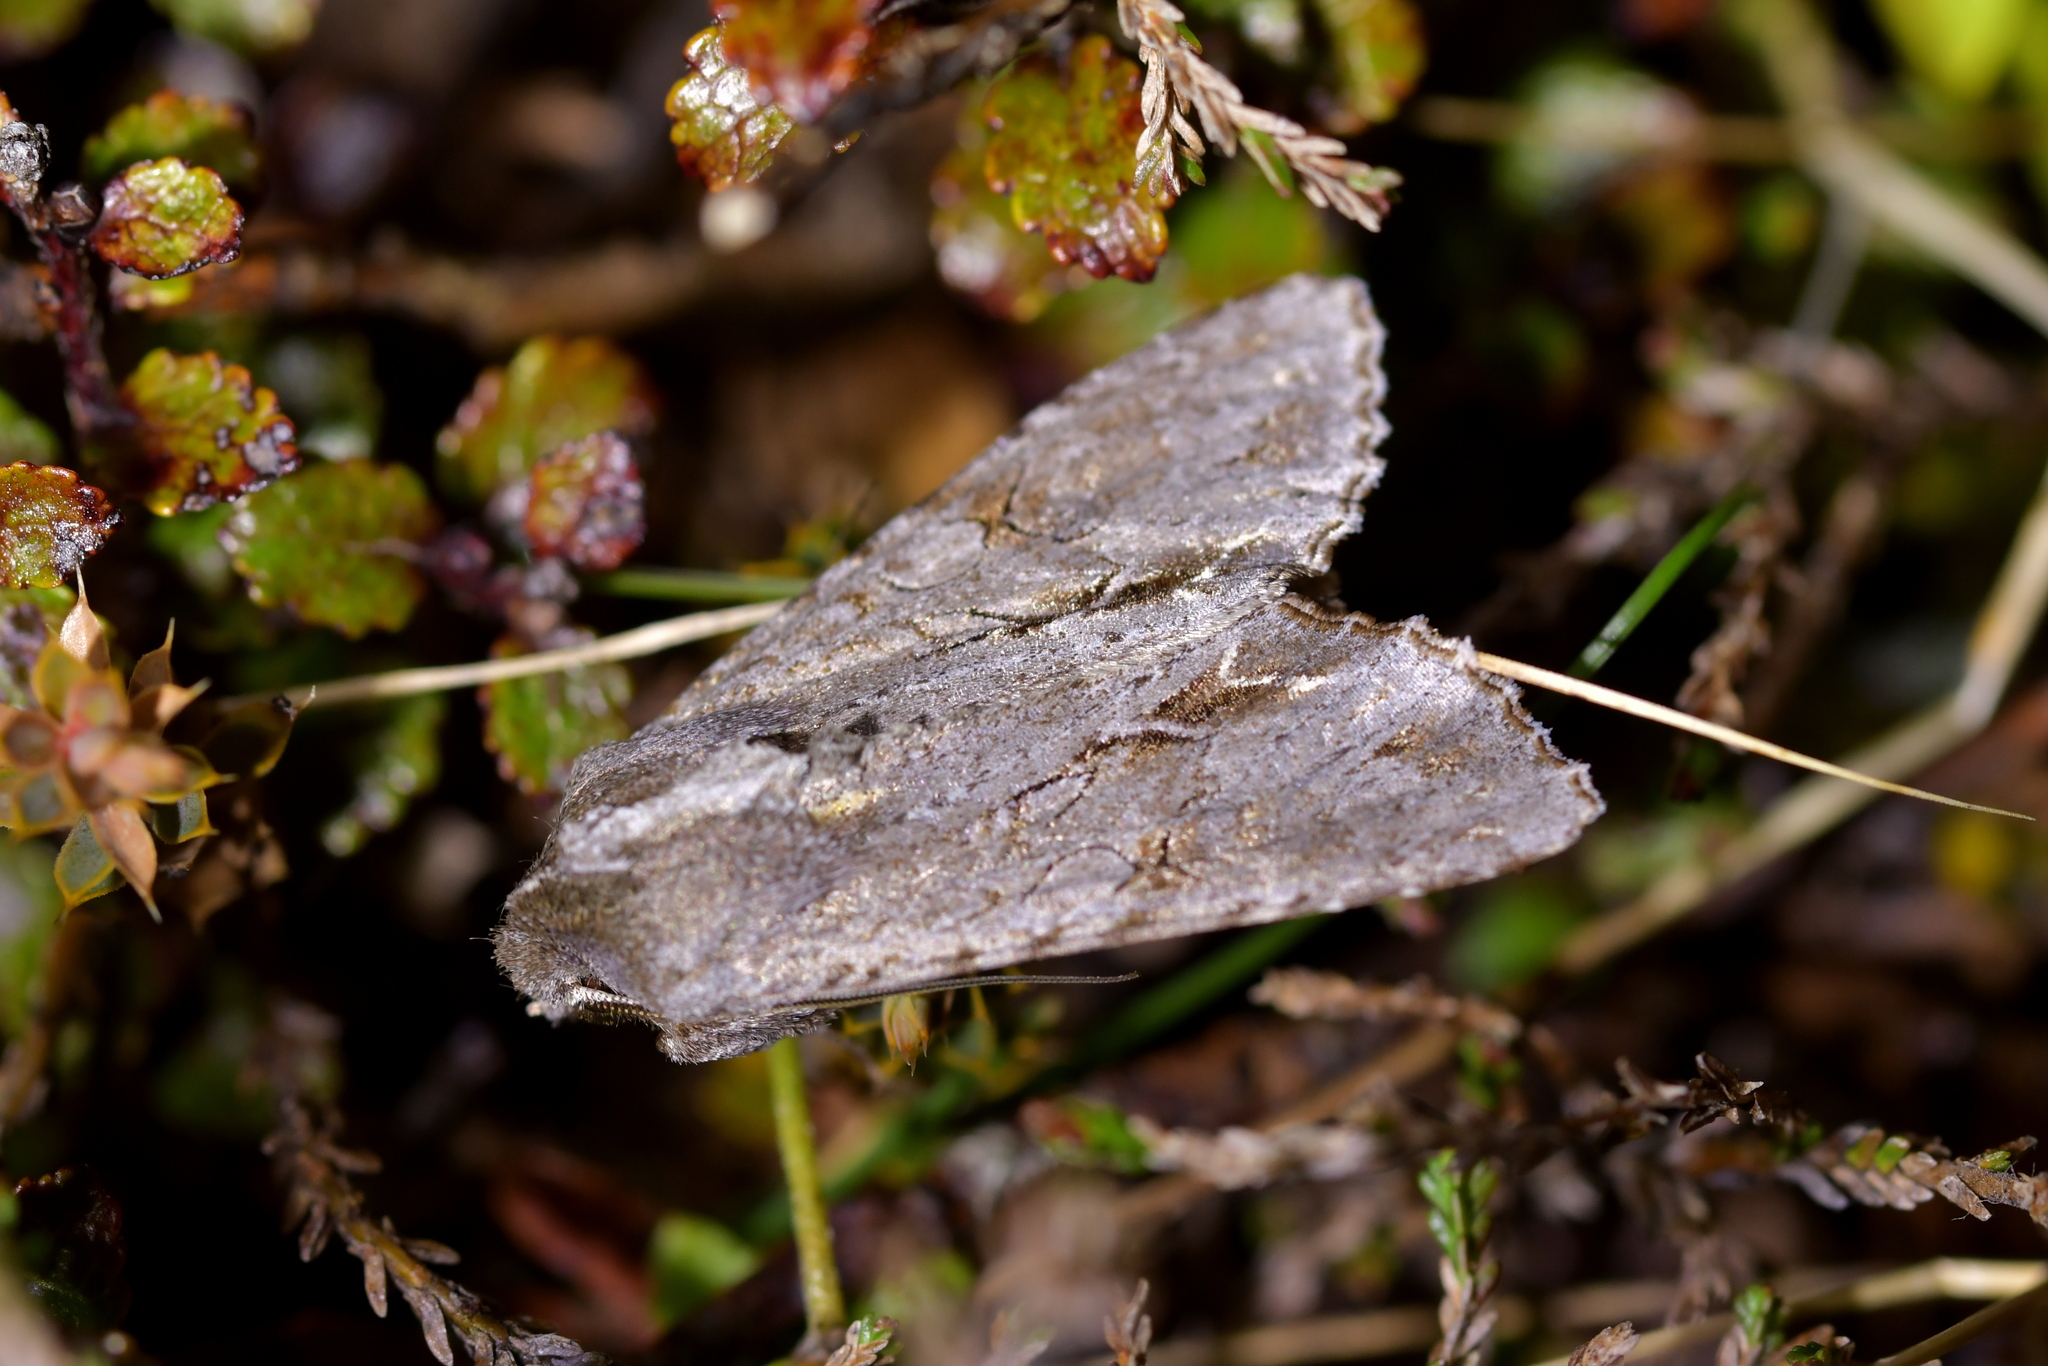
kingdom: Animalia
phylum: Arthropoda
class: Insecta
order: Lepidoptera
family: Noctuidae
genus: Ichneutica
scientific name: Ichneutica
